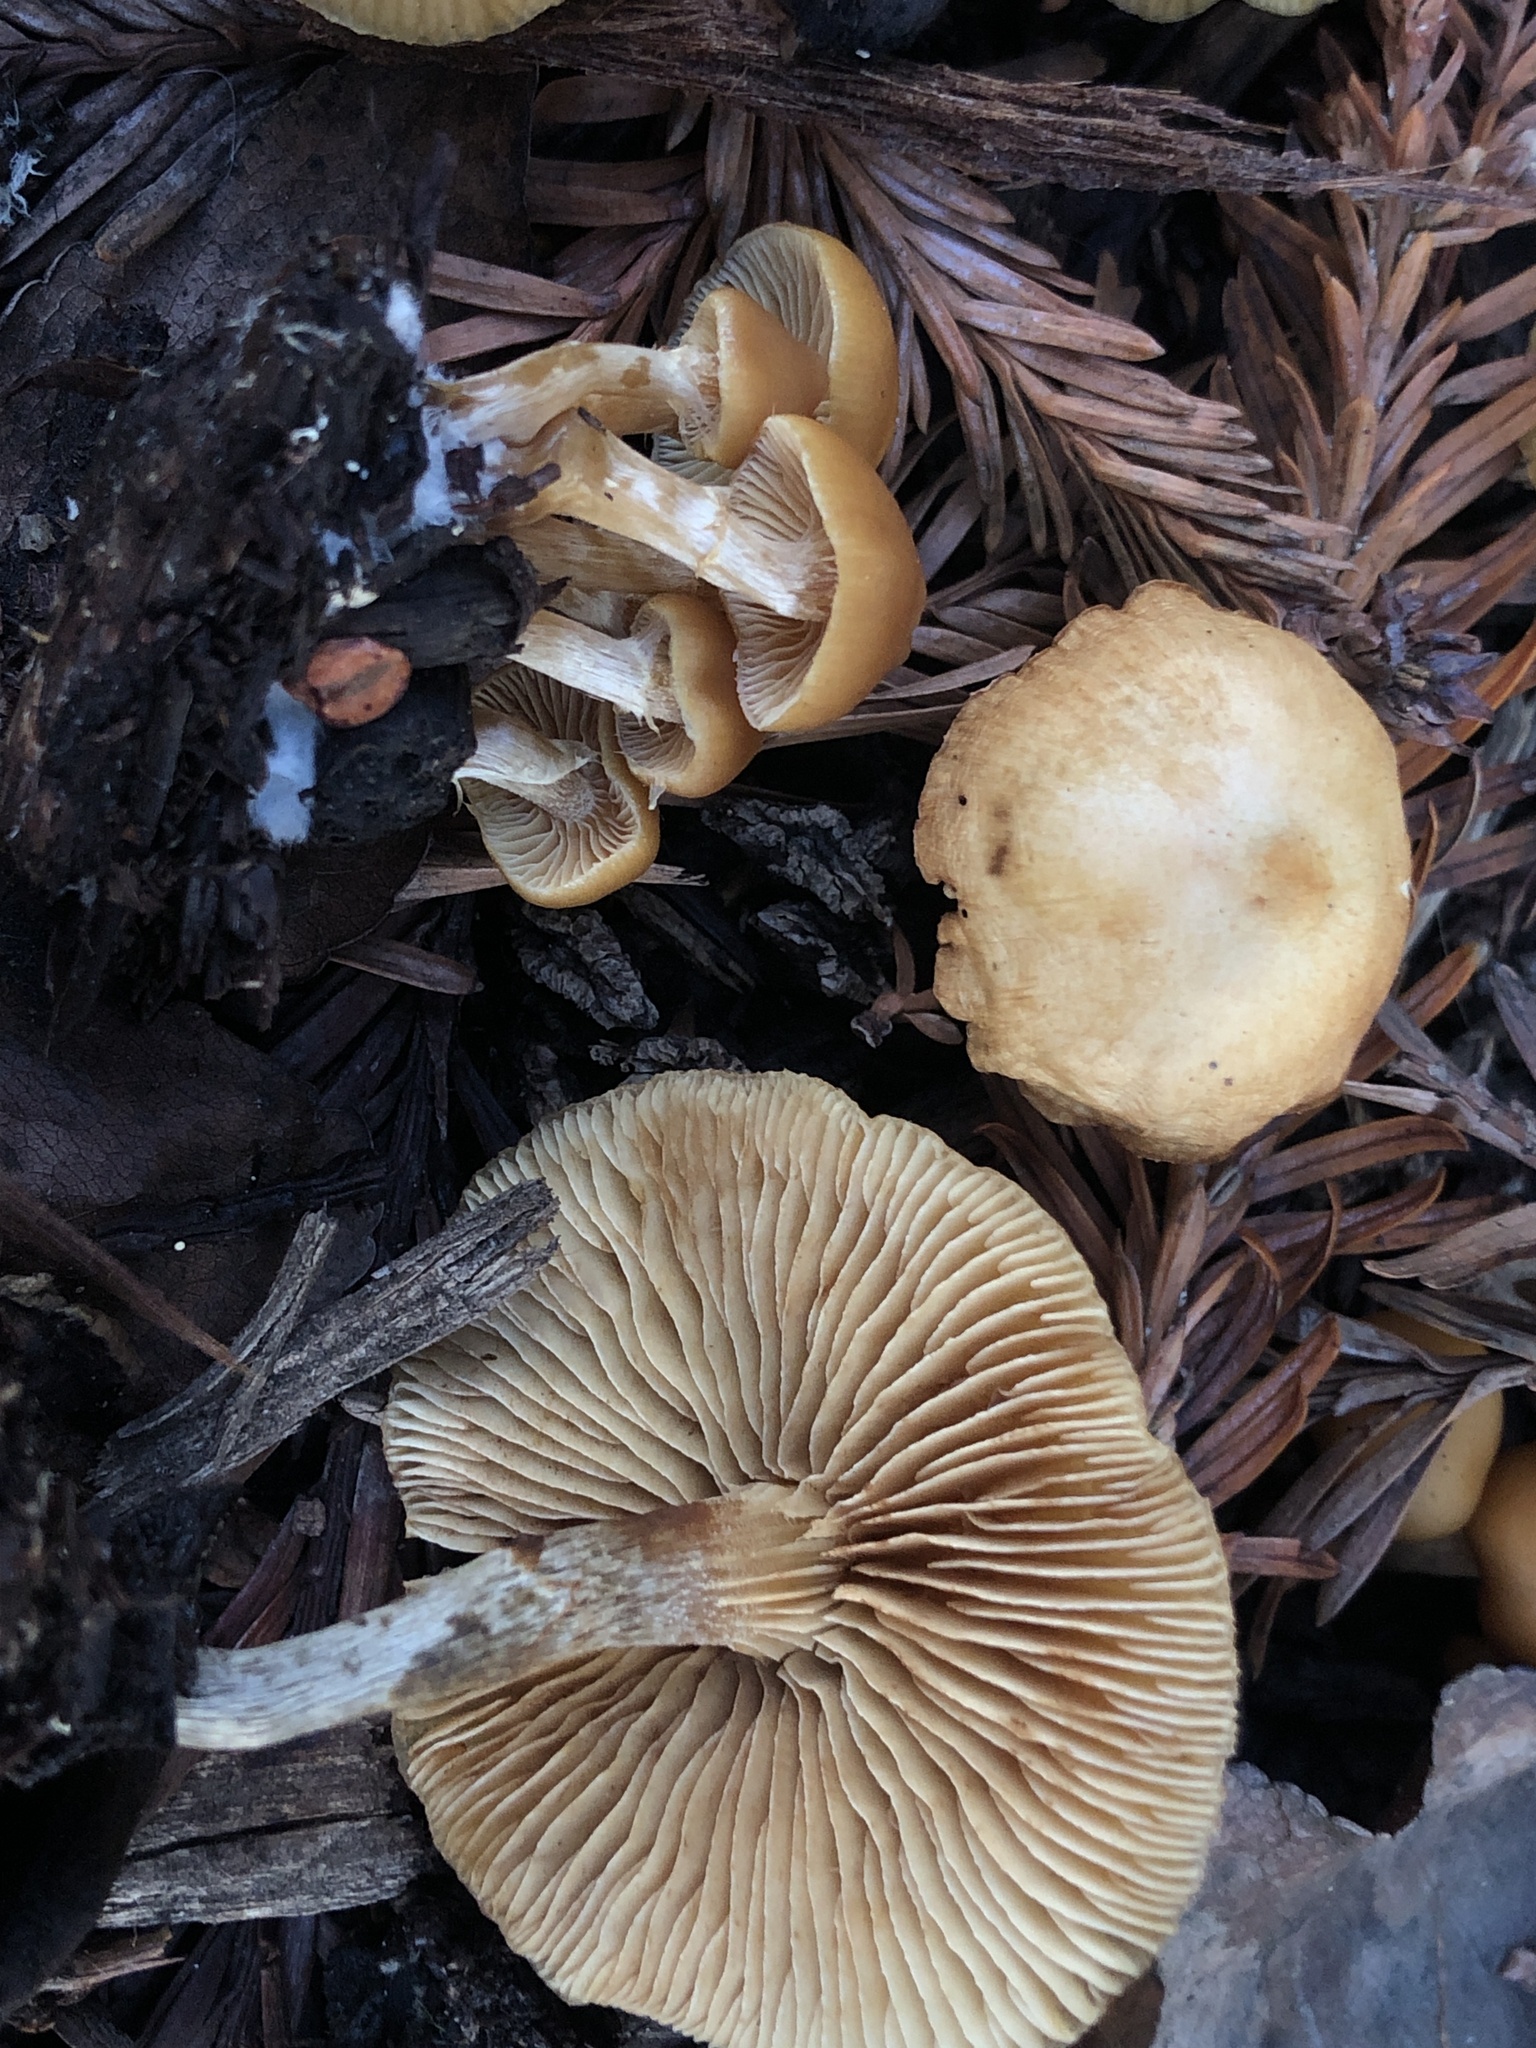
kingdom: Fungi
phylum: Basidiomycota
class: Agaricomycetes
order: Agaricales
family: Hymenogastraceae
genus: Galerina
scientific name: Galerina marginata
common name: Funeral bell
